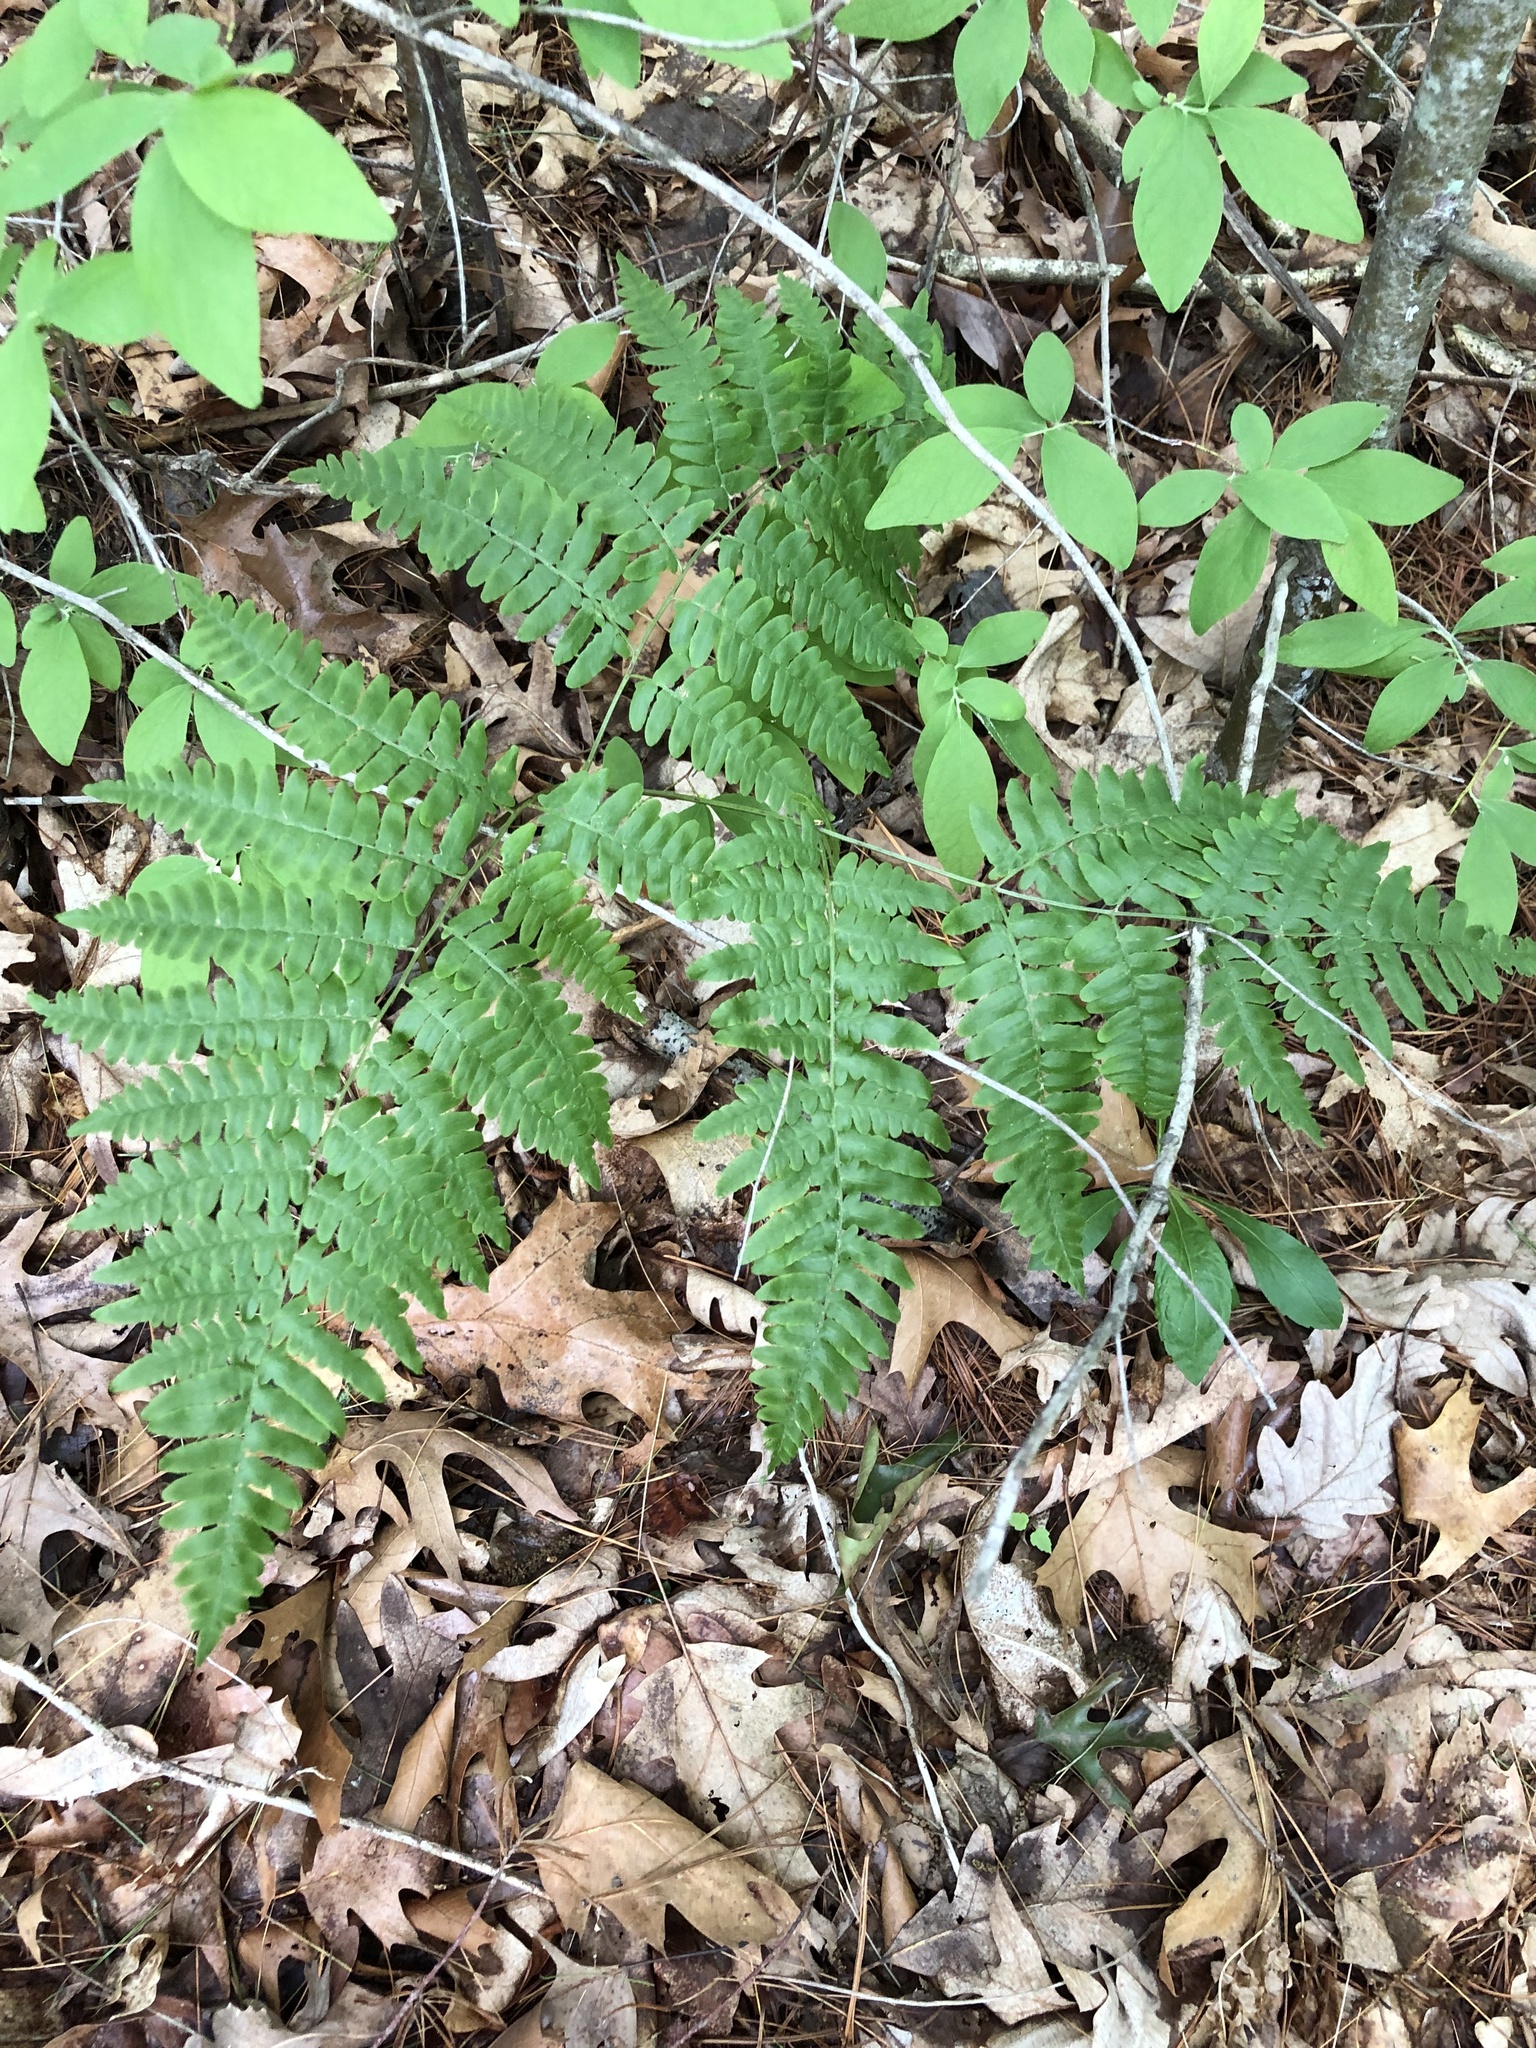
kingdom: Plantae
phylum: Tracheophyta
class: Polypodiopsida
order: Polypodiales
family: Dennstaedtiaceae
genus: Pteridium
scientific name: Pteridium aquilinum
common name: Bracken
